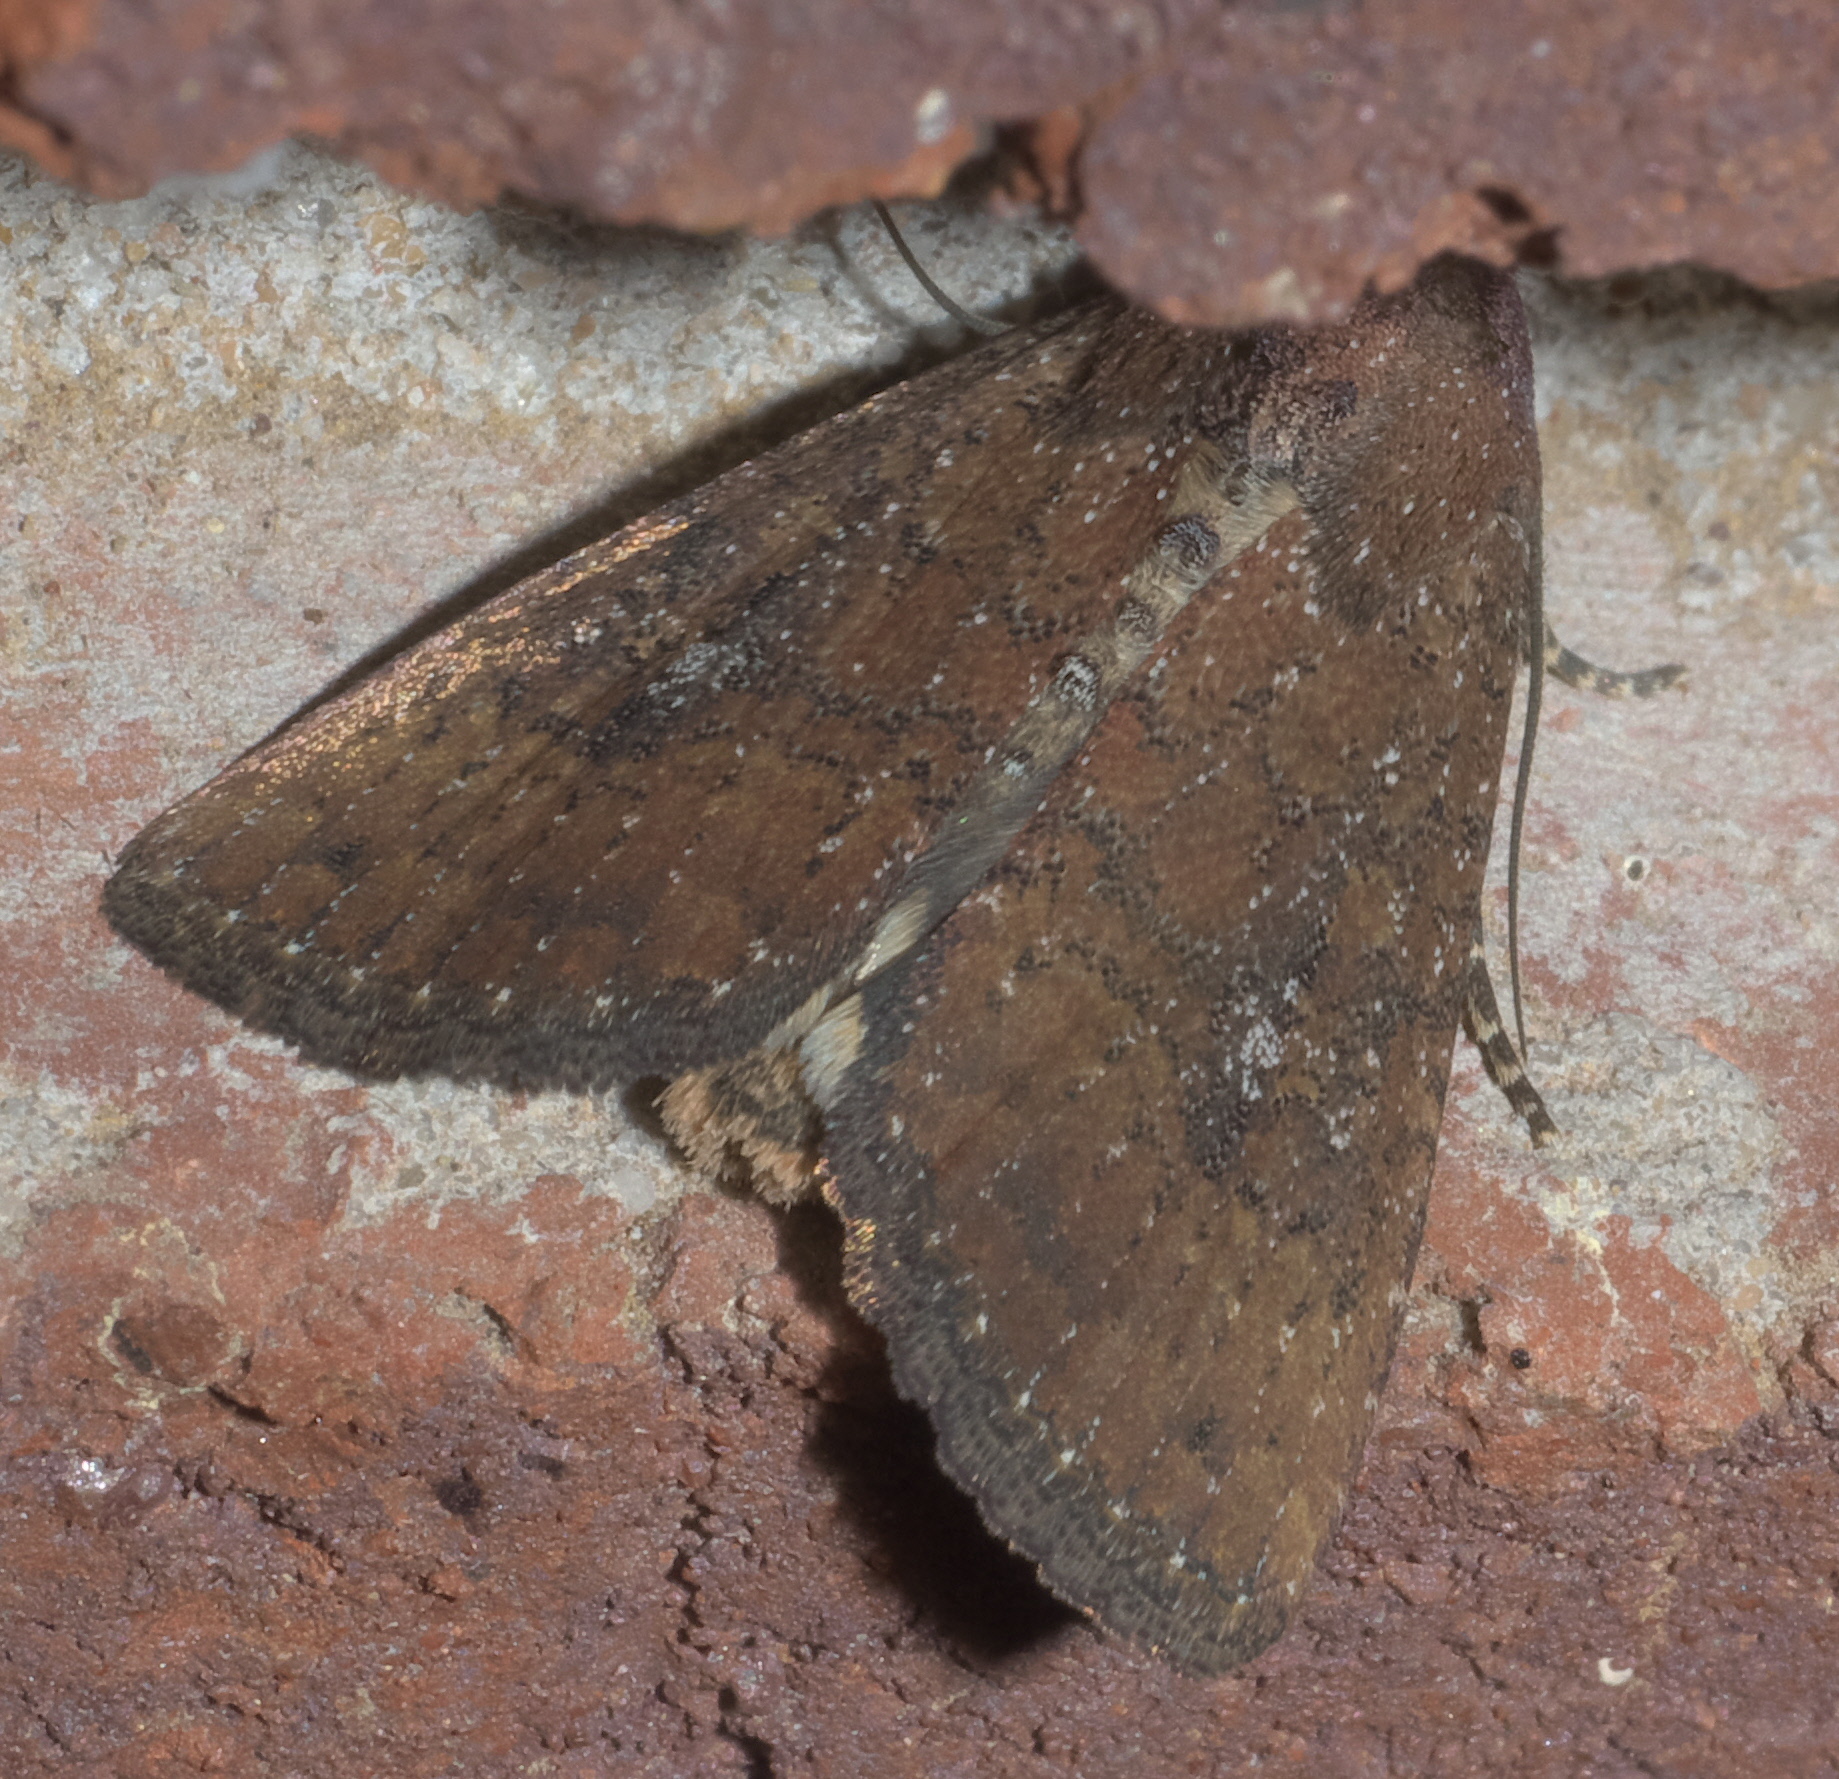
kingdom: Animalia
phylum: Arthropoda
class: Insecta
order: Lepidoptera
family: Noctuidae
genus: Condica
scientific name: Condica sutor
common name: Cobbler moth
